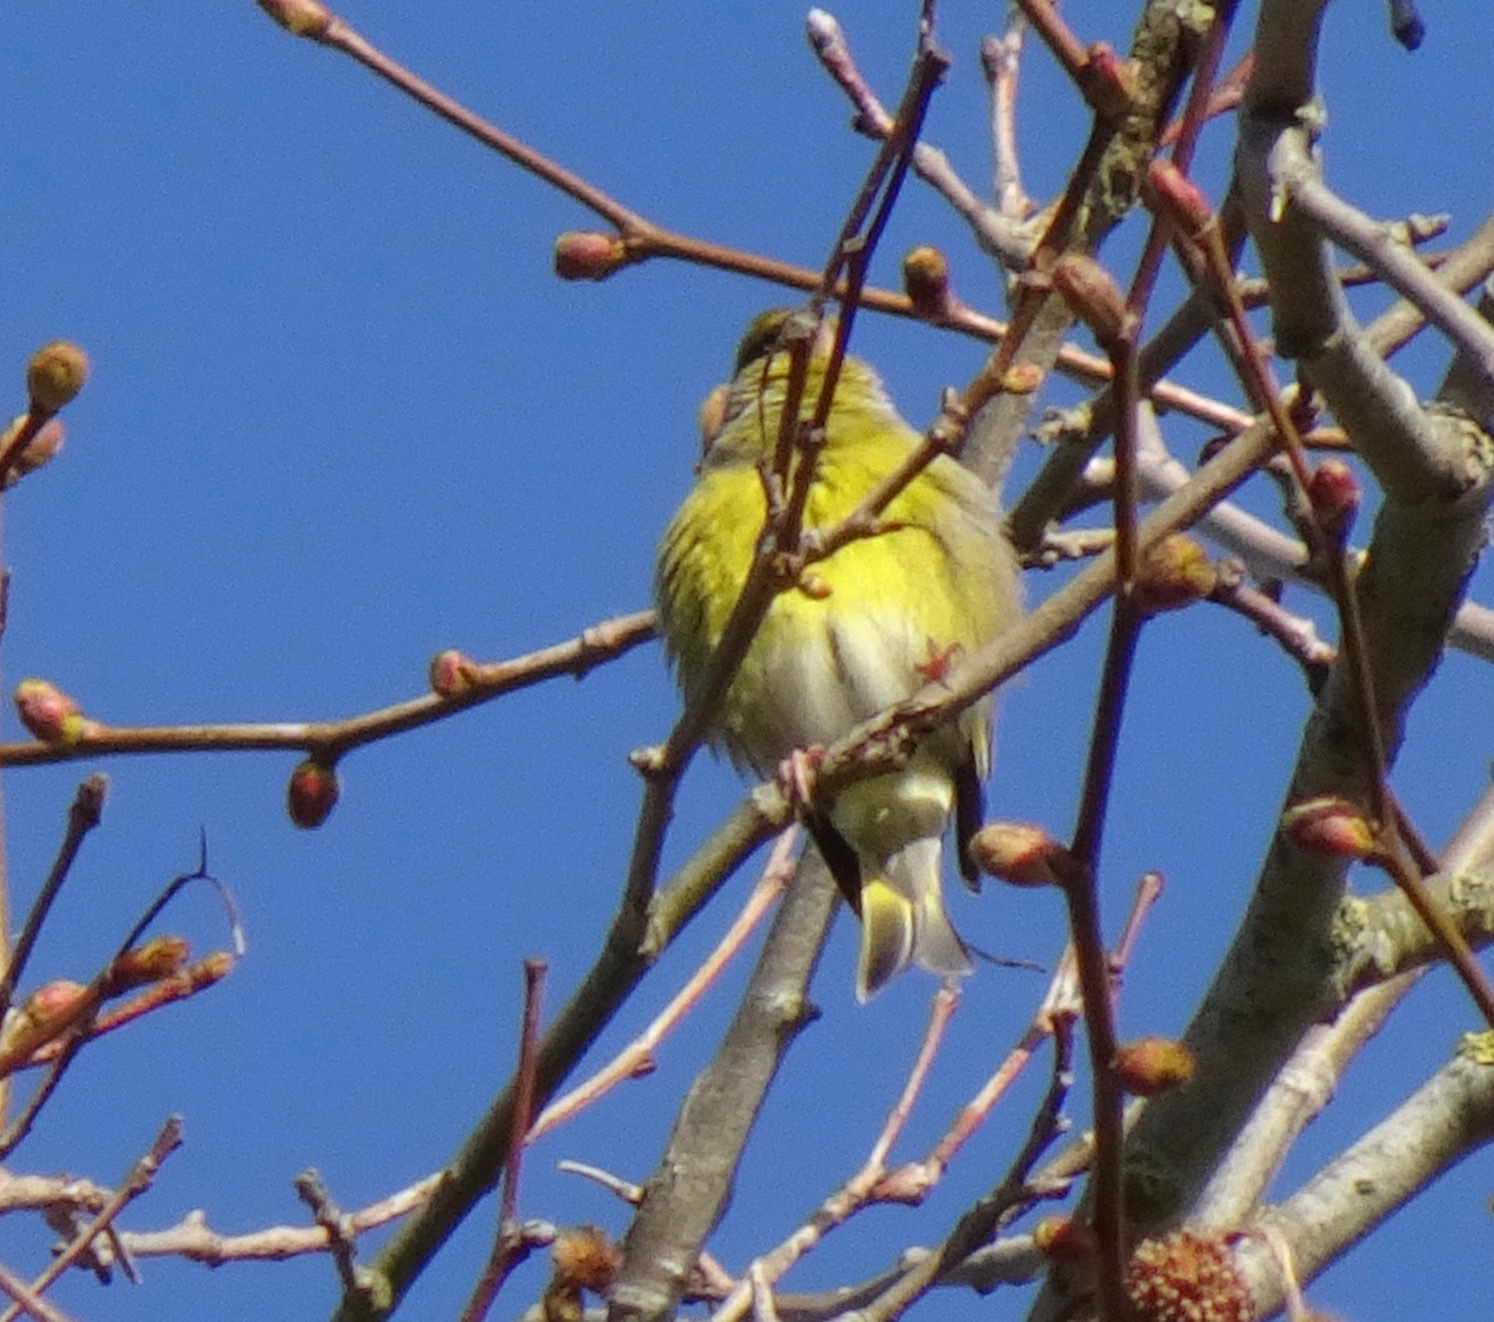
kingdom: Plantae
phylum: Tracheophyta
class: Liliopsida
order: Poales
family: Poaceae
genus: Chloris
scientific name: Chloris chloris
